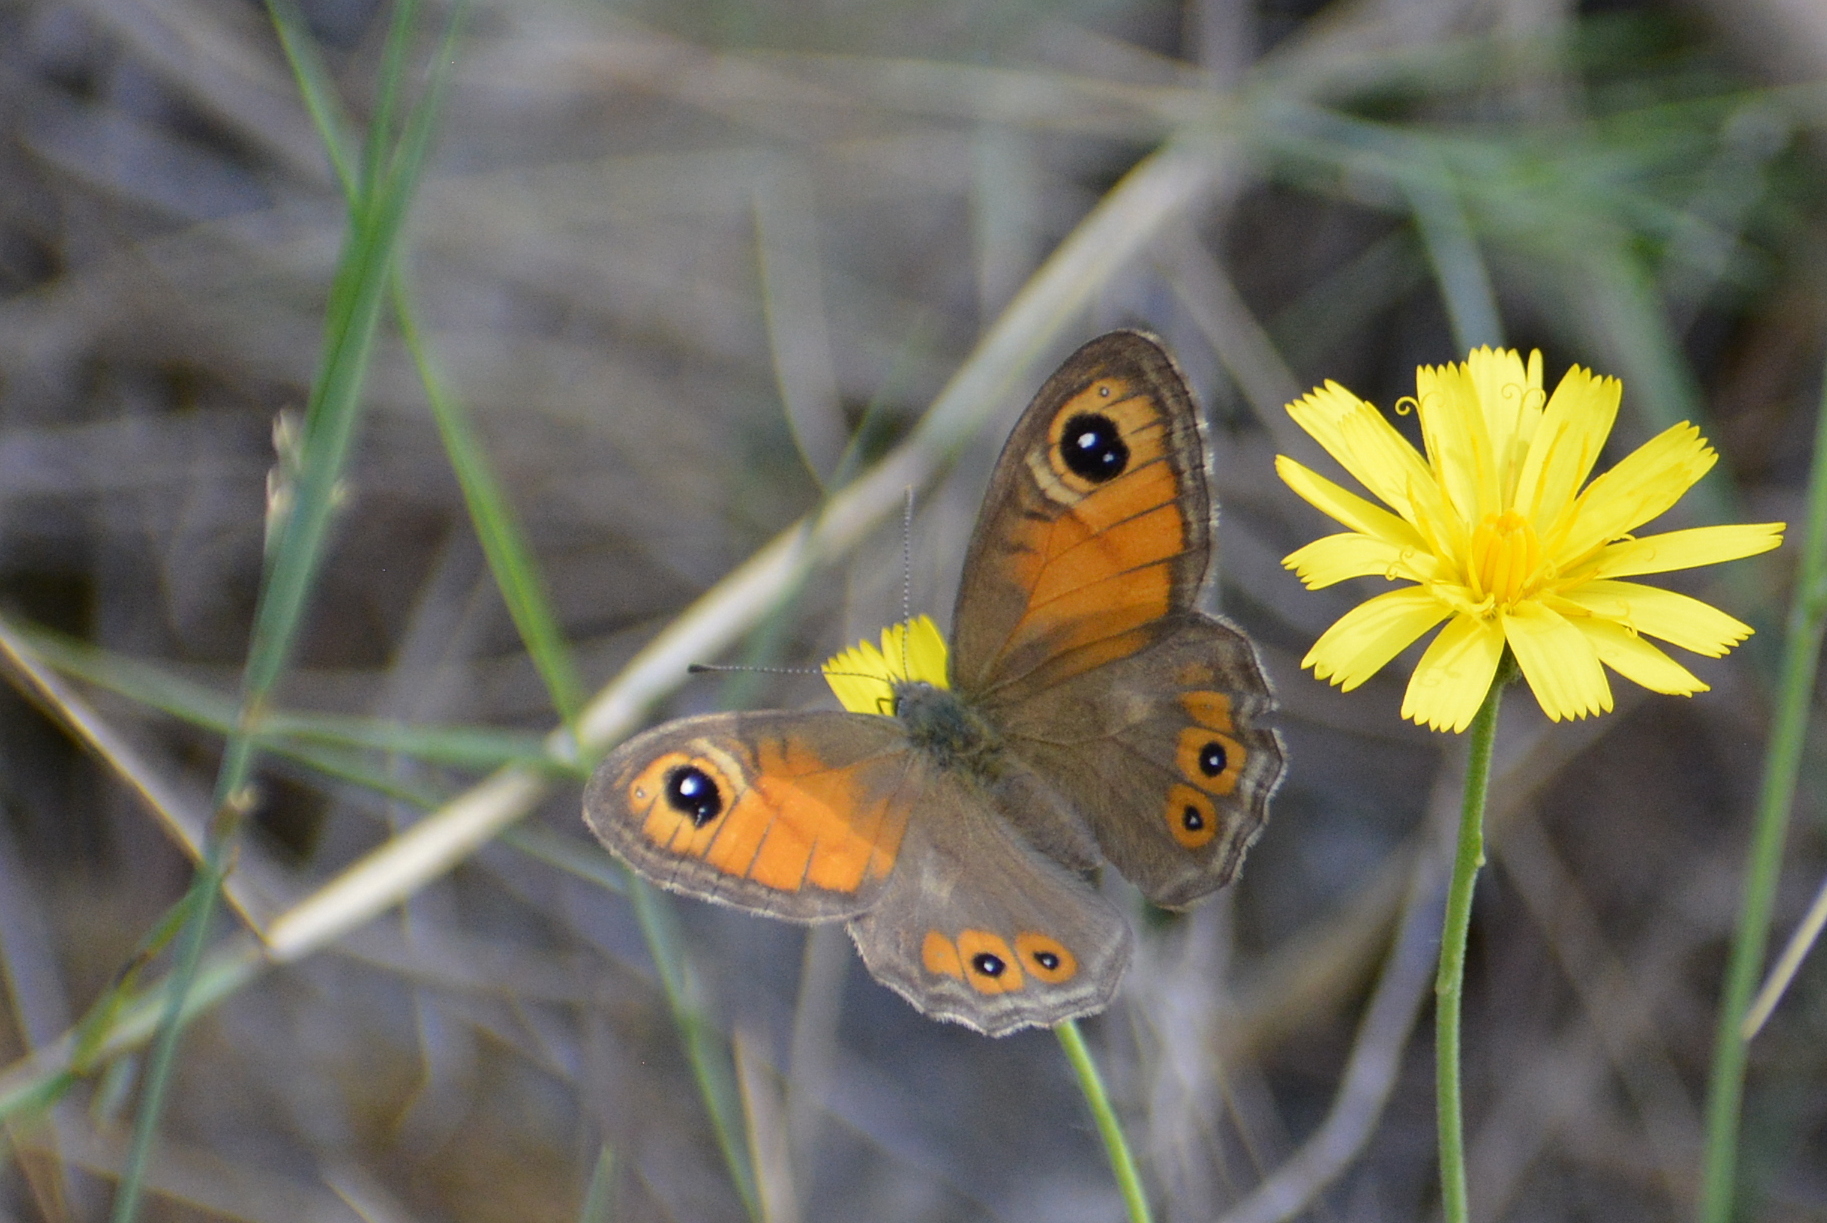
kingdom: Animalia
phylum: Arthropoda
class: Insecta
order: Lepidoptera
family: Nymphalidae
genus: Pararge
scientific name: Pararge Lasiommata maera
